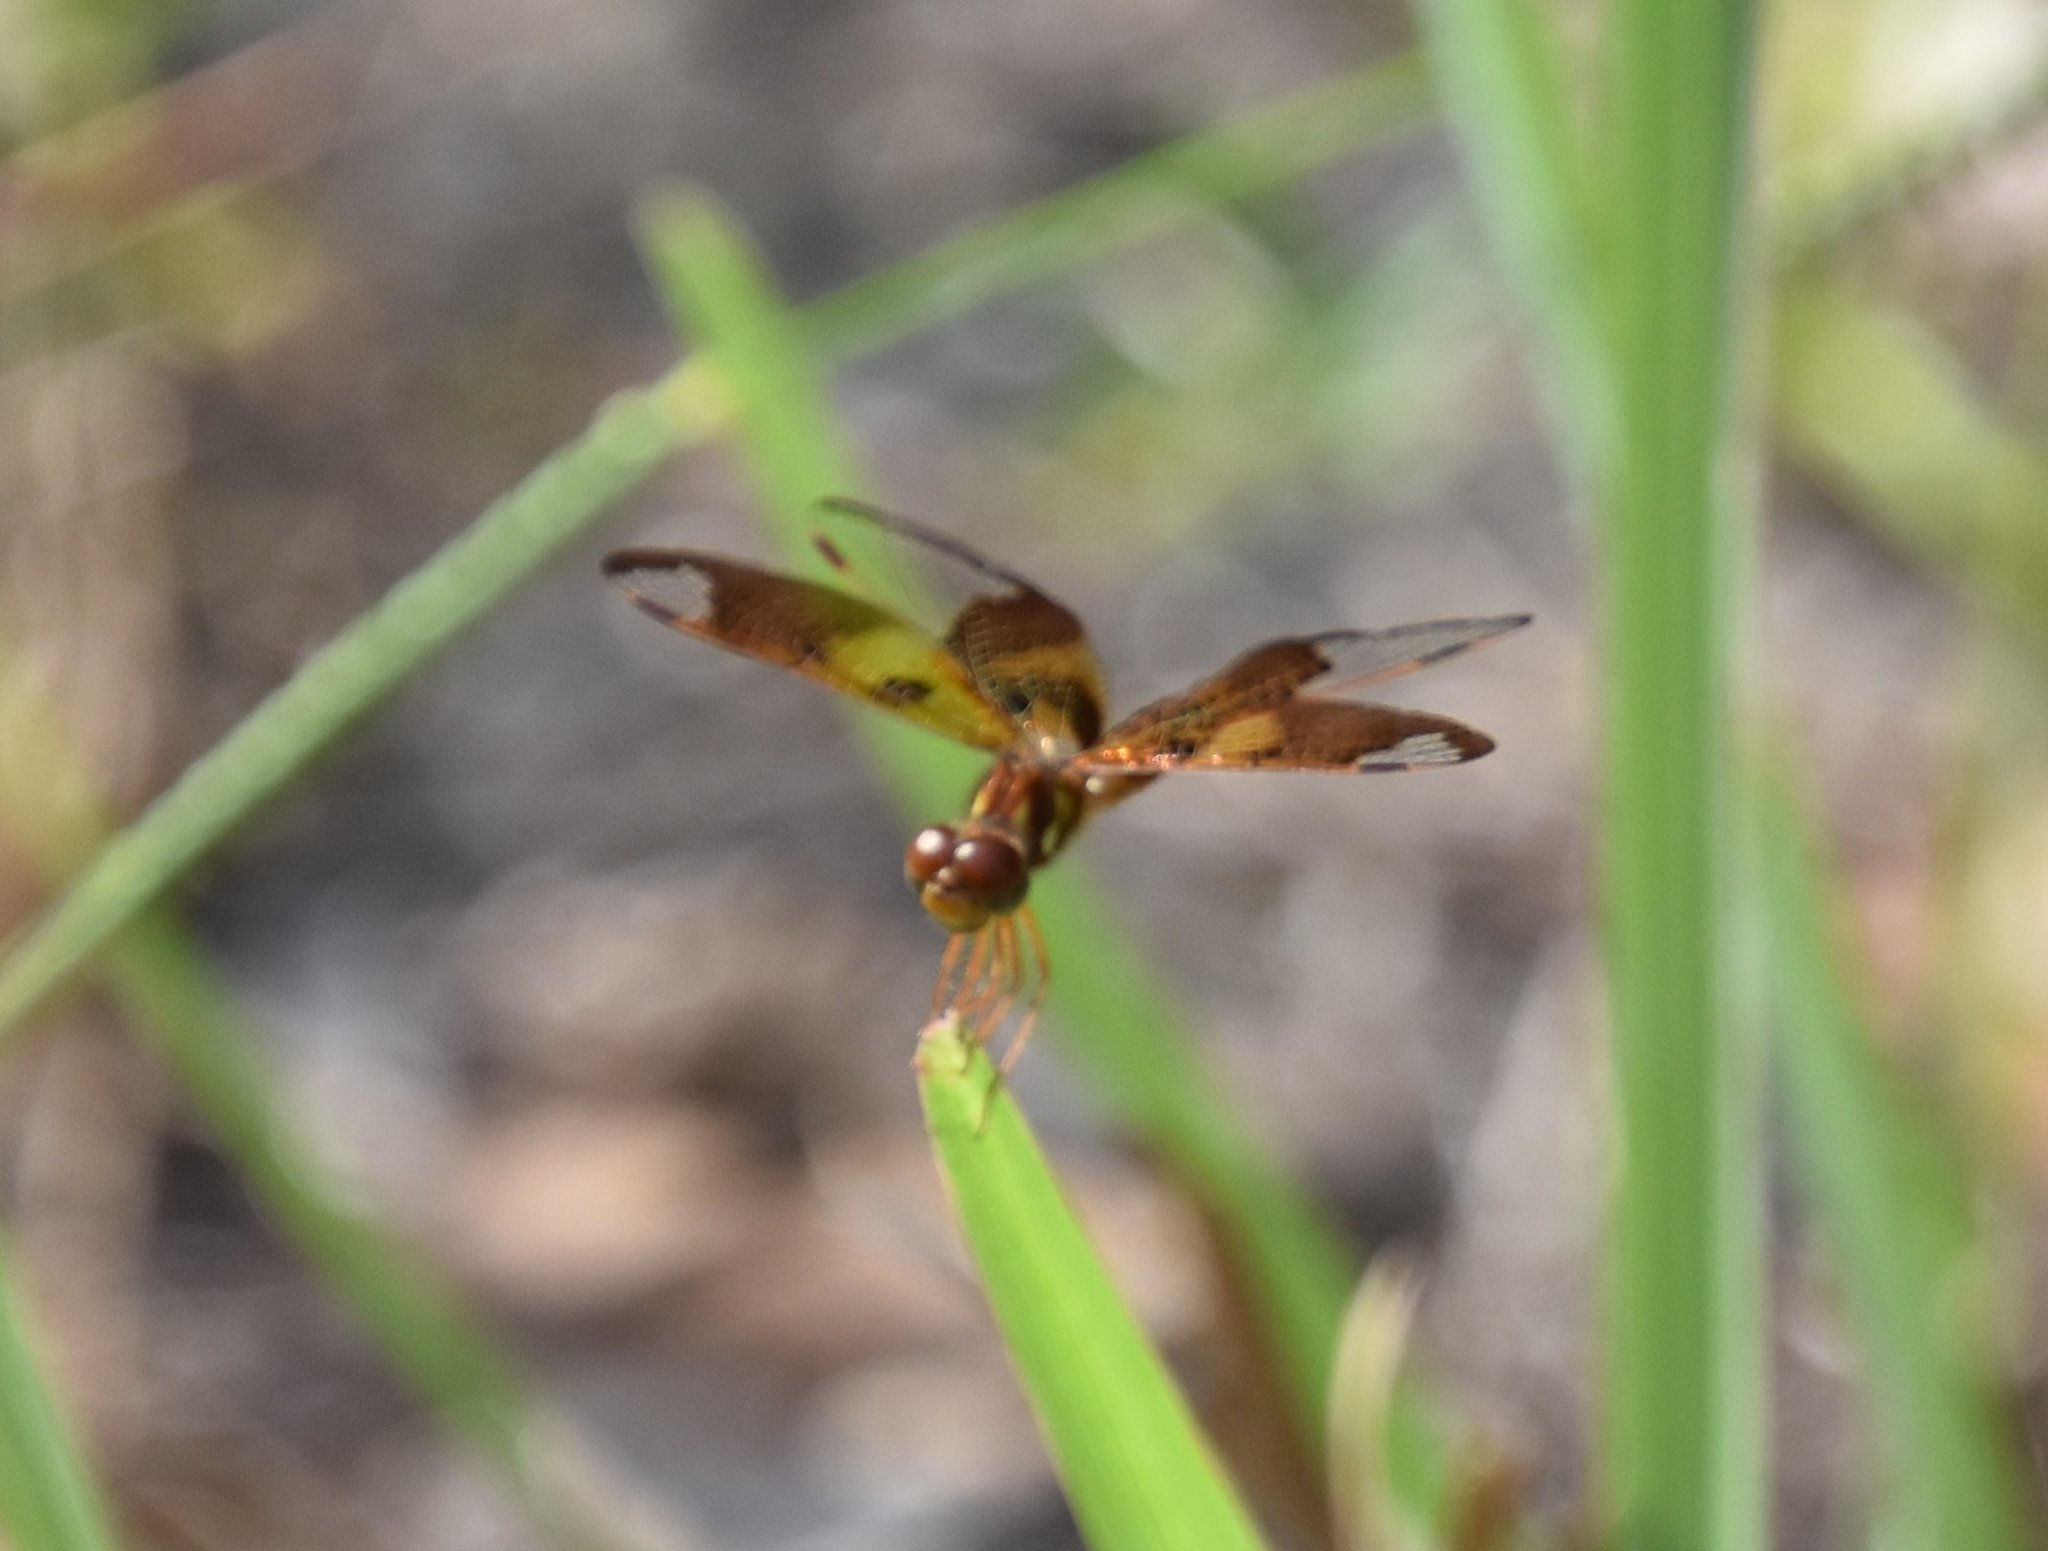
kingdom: Animalia
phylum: Arthropoda
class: Insecta
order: Odonata
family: Libellulidae
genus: Perithemis
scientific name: Perithemis tenera
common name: Eastern amberwing
